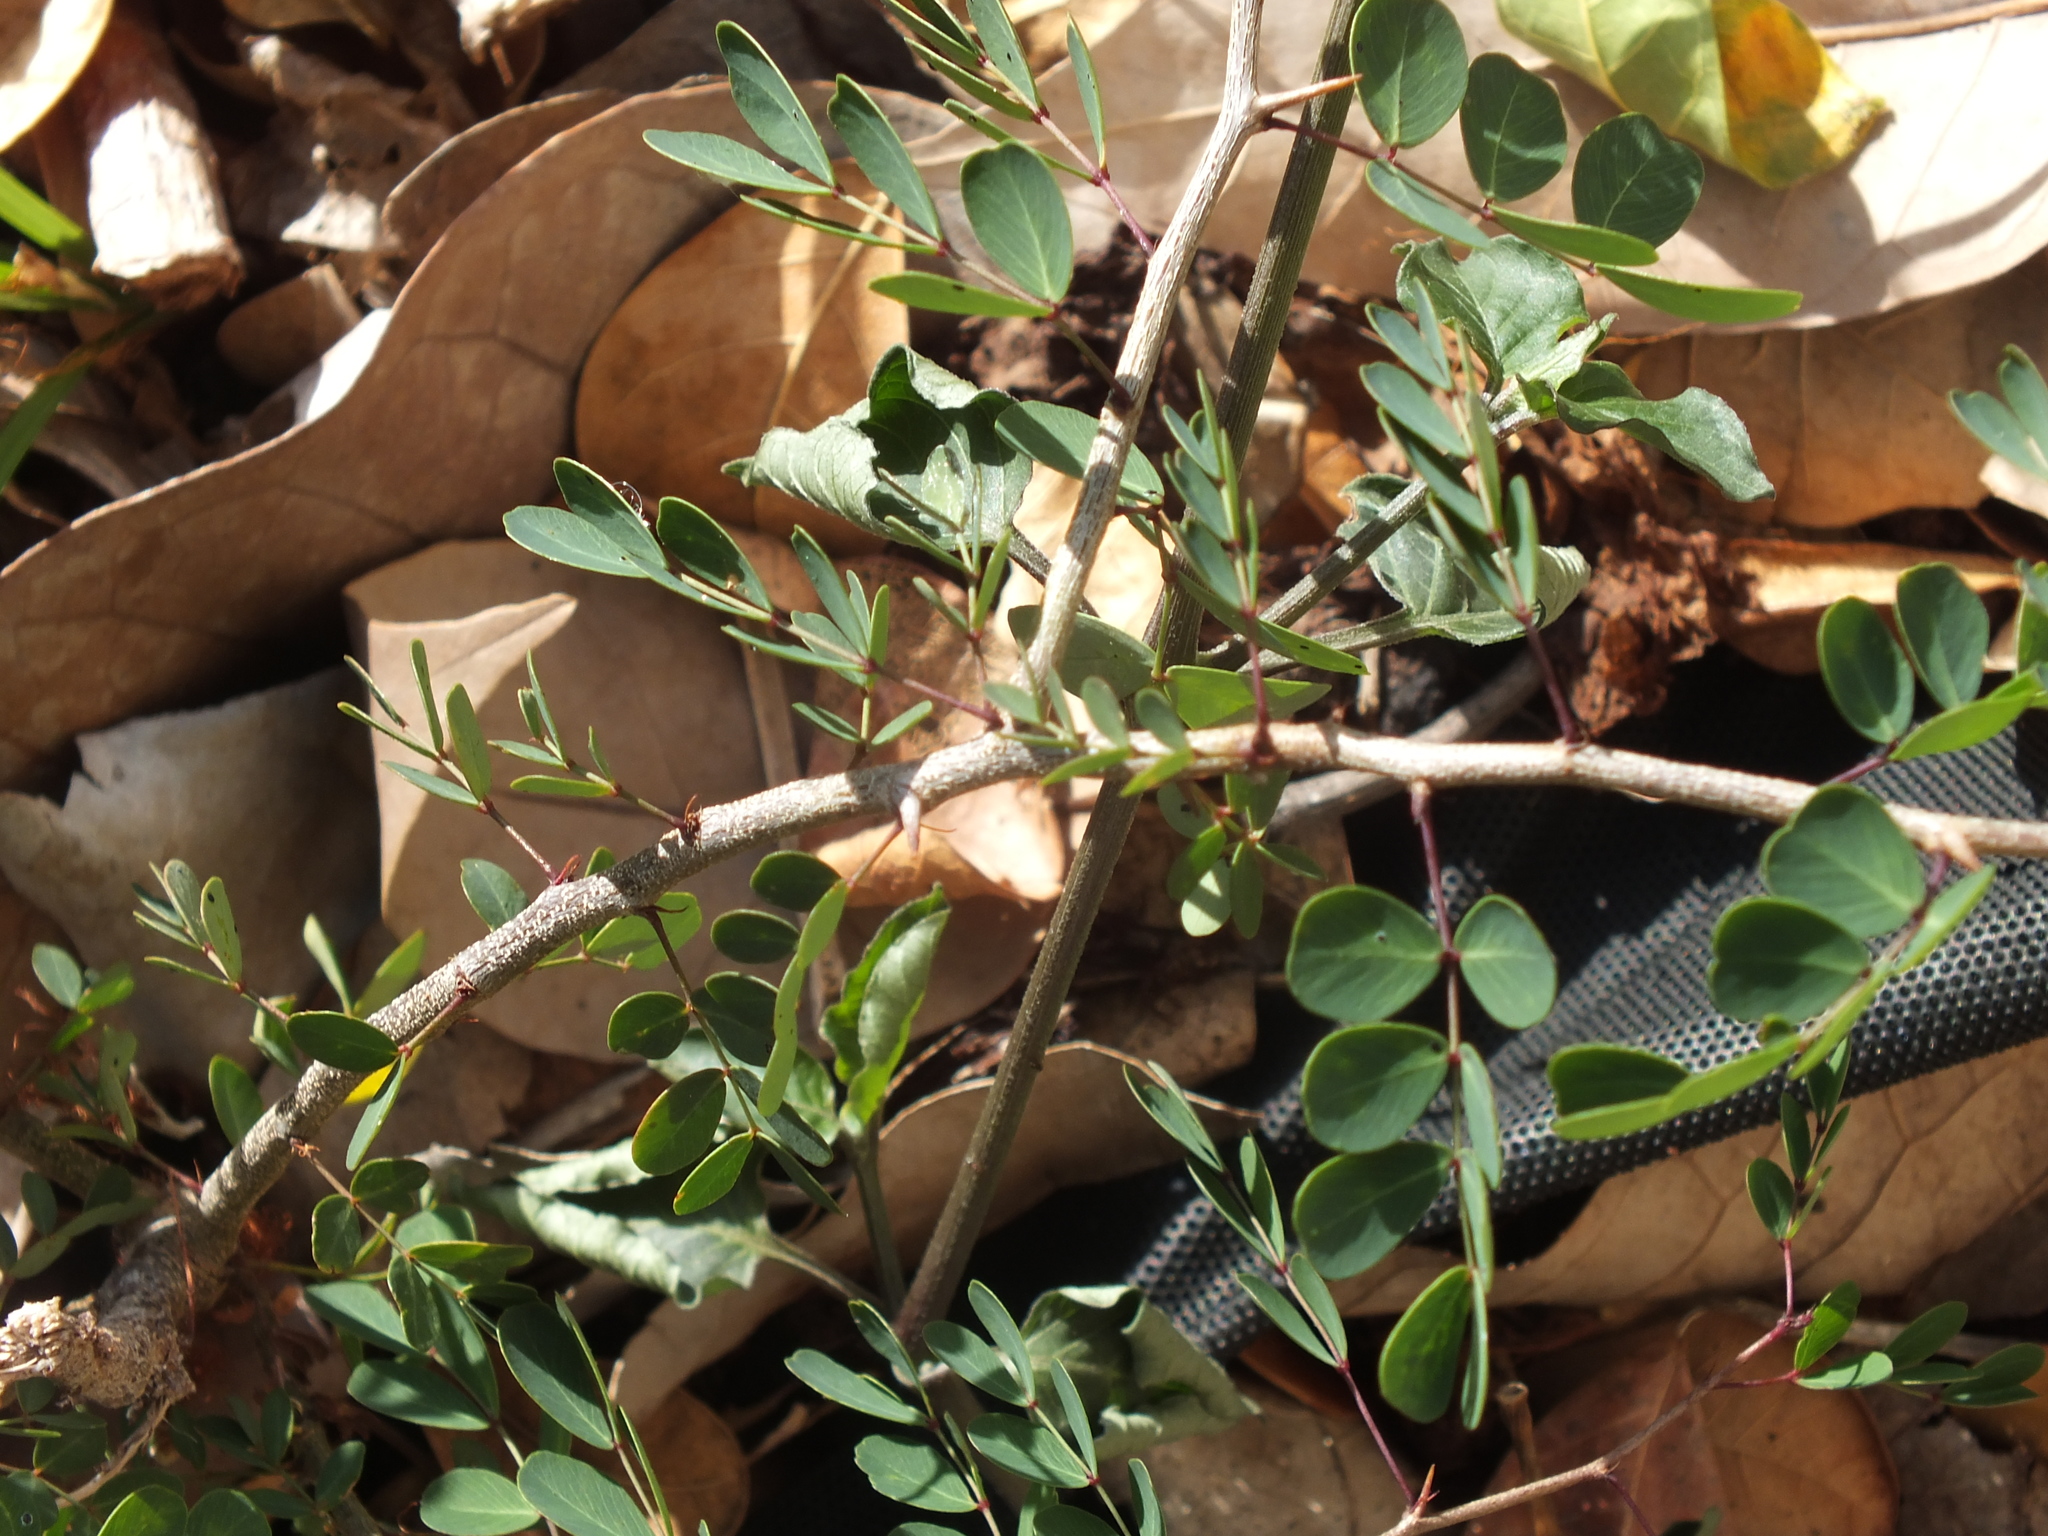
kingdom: Plantae
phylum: Tracheophyta
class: Magnoliopsida
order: Fabales
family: Fabaceae
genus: Haematoxylum
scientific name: Haematoxylum campechianum
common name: Logwood
